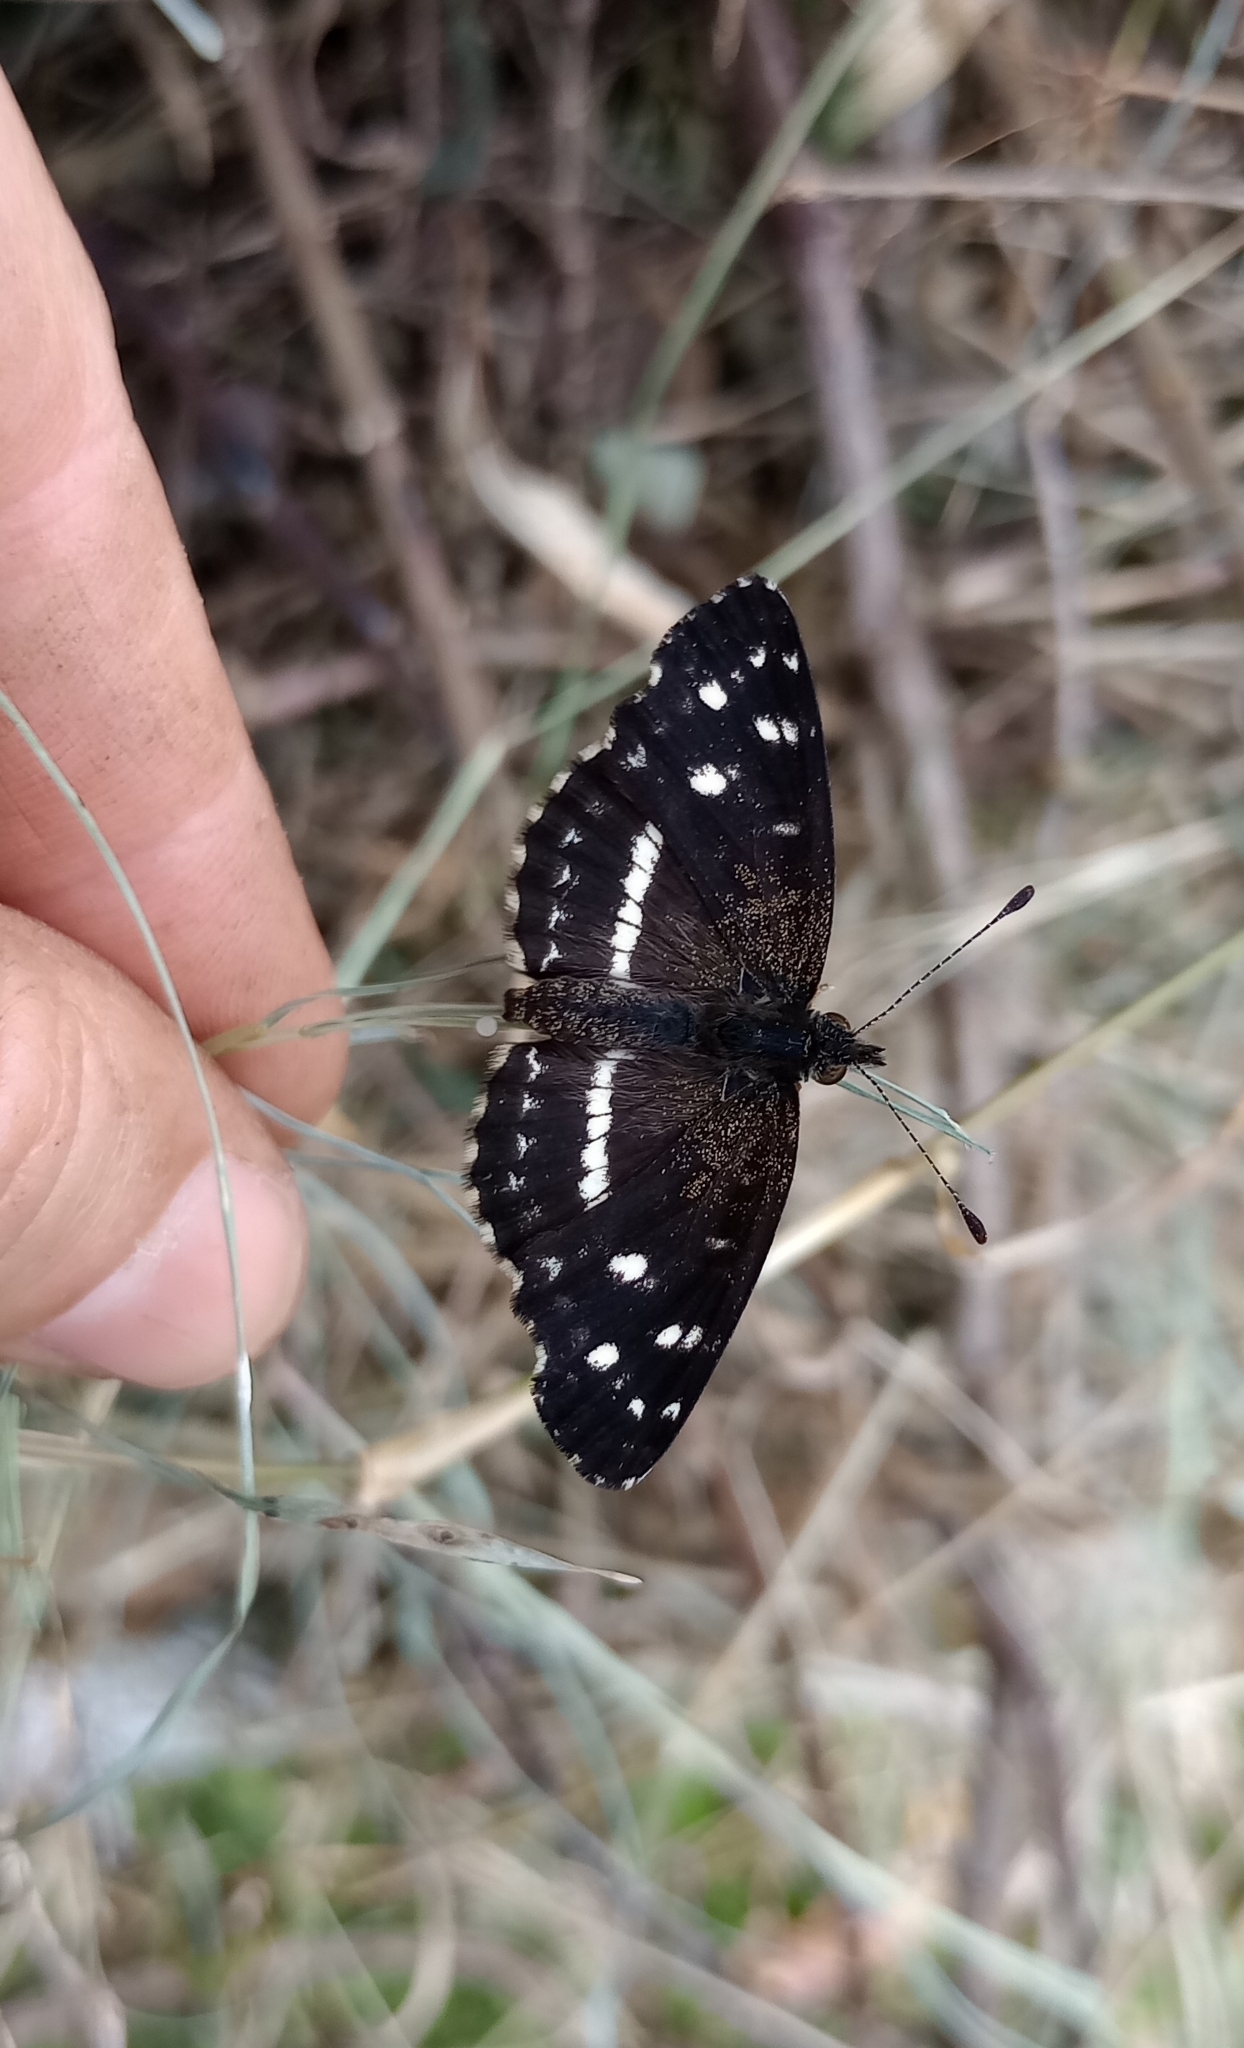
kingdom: Animalia
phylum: Arthropoda
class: Insecta
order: Lepidoptera
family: Nymphalidae
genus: Ortilia
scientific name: Ortilia ithra
